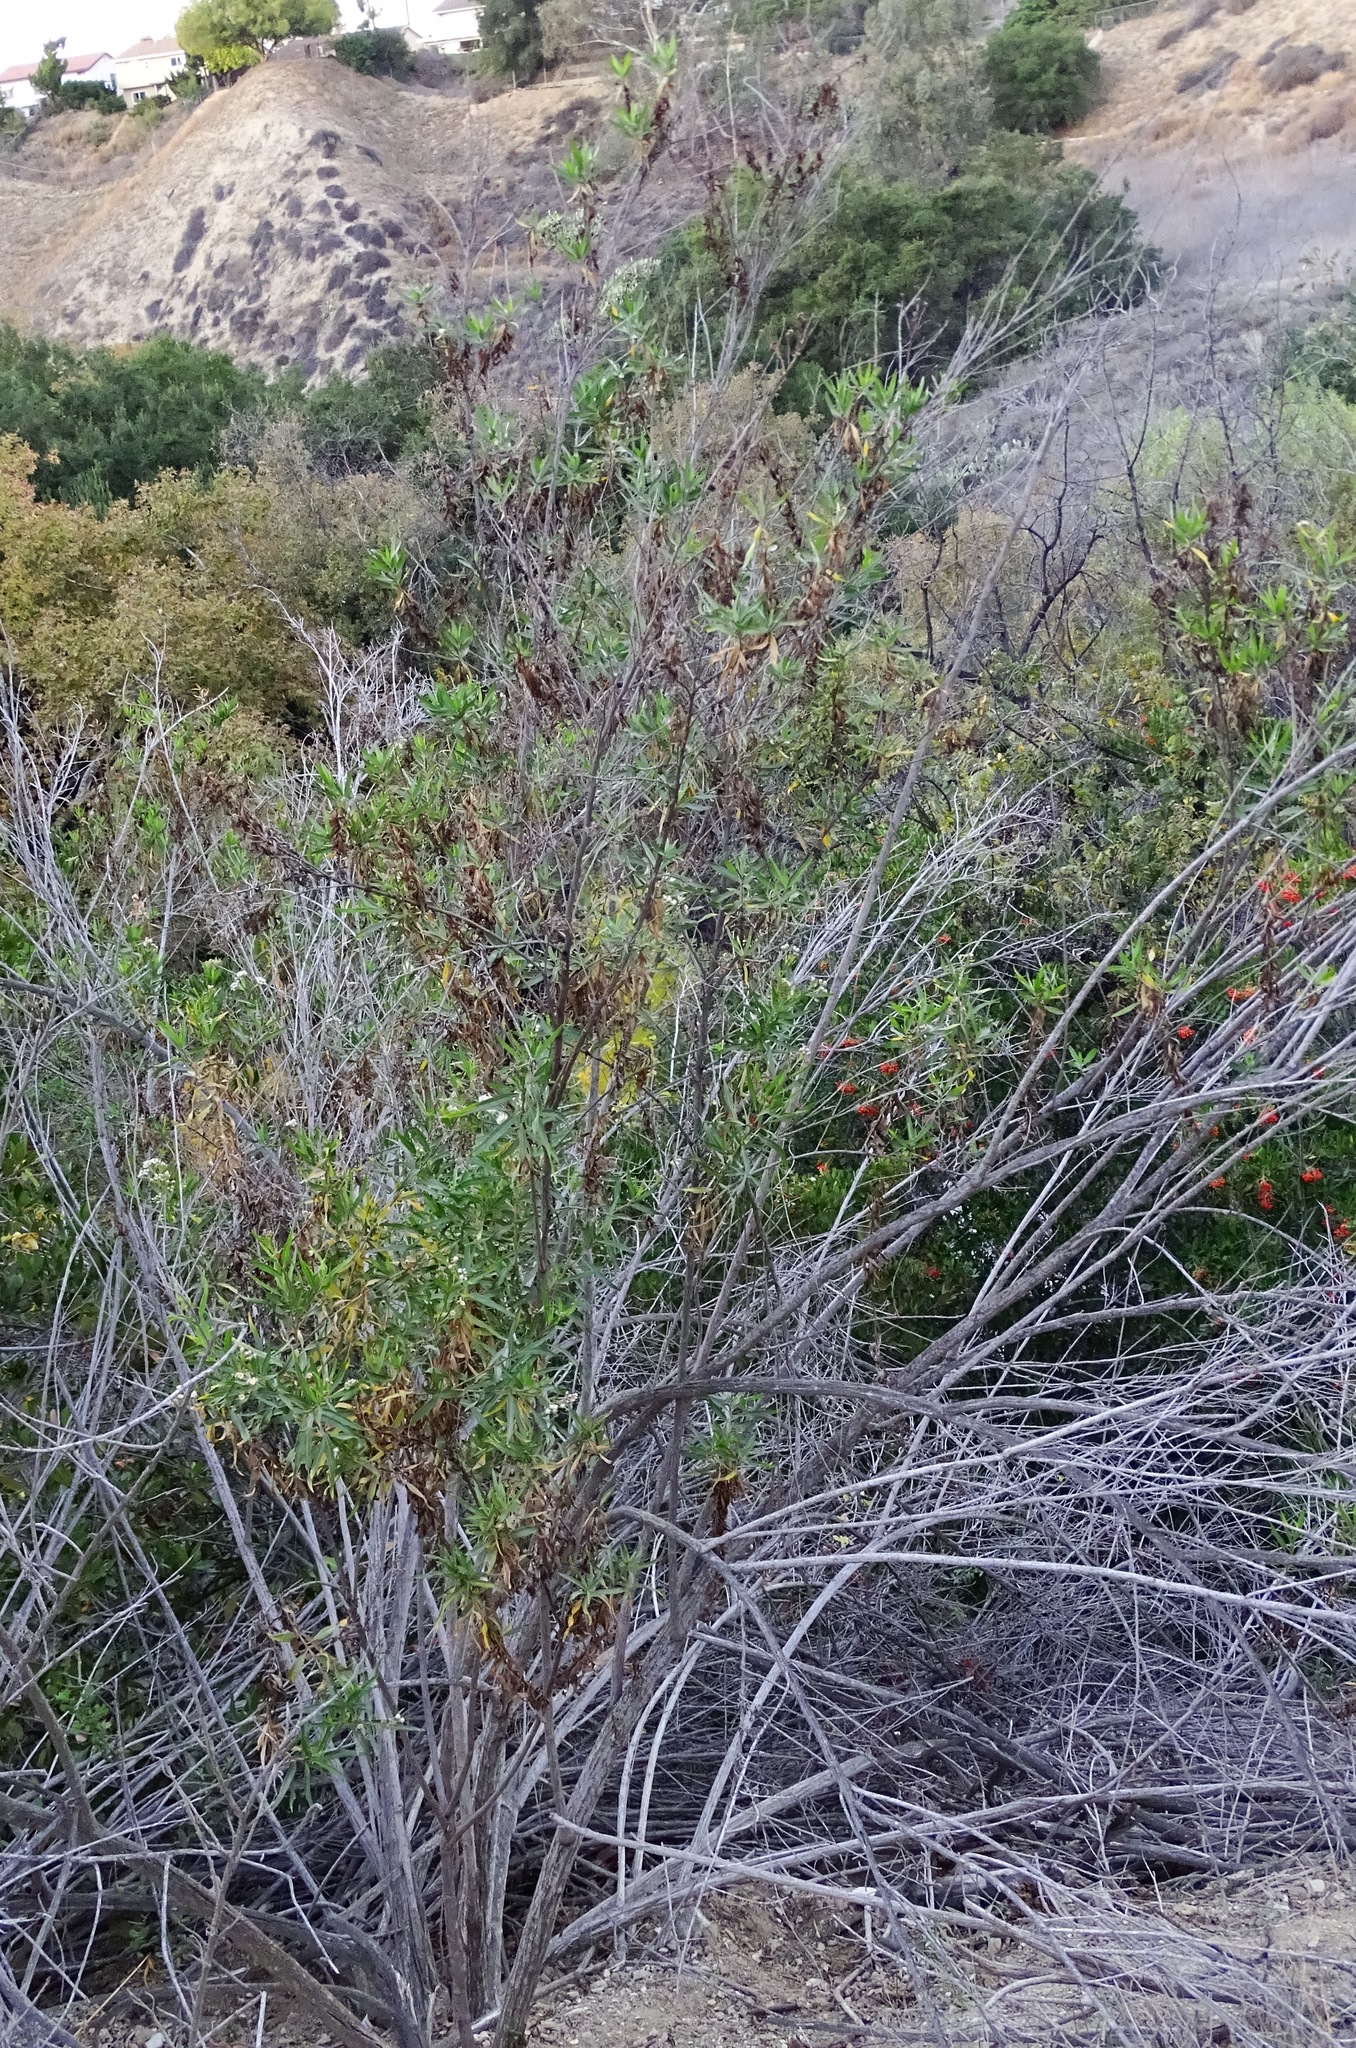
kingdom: Plantae
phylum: Tracheophyta
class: Magnoliopsida
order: Asterales
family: Asteraceae
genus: Baccharis
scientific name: Baccharis salicifolia
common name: Sticky baccharis
